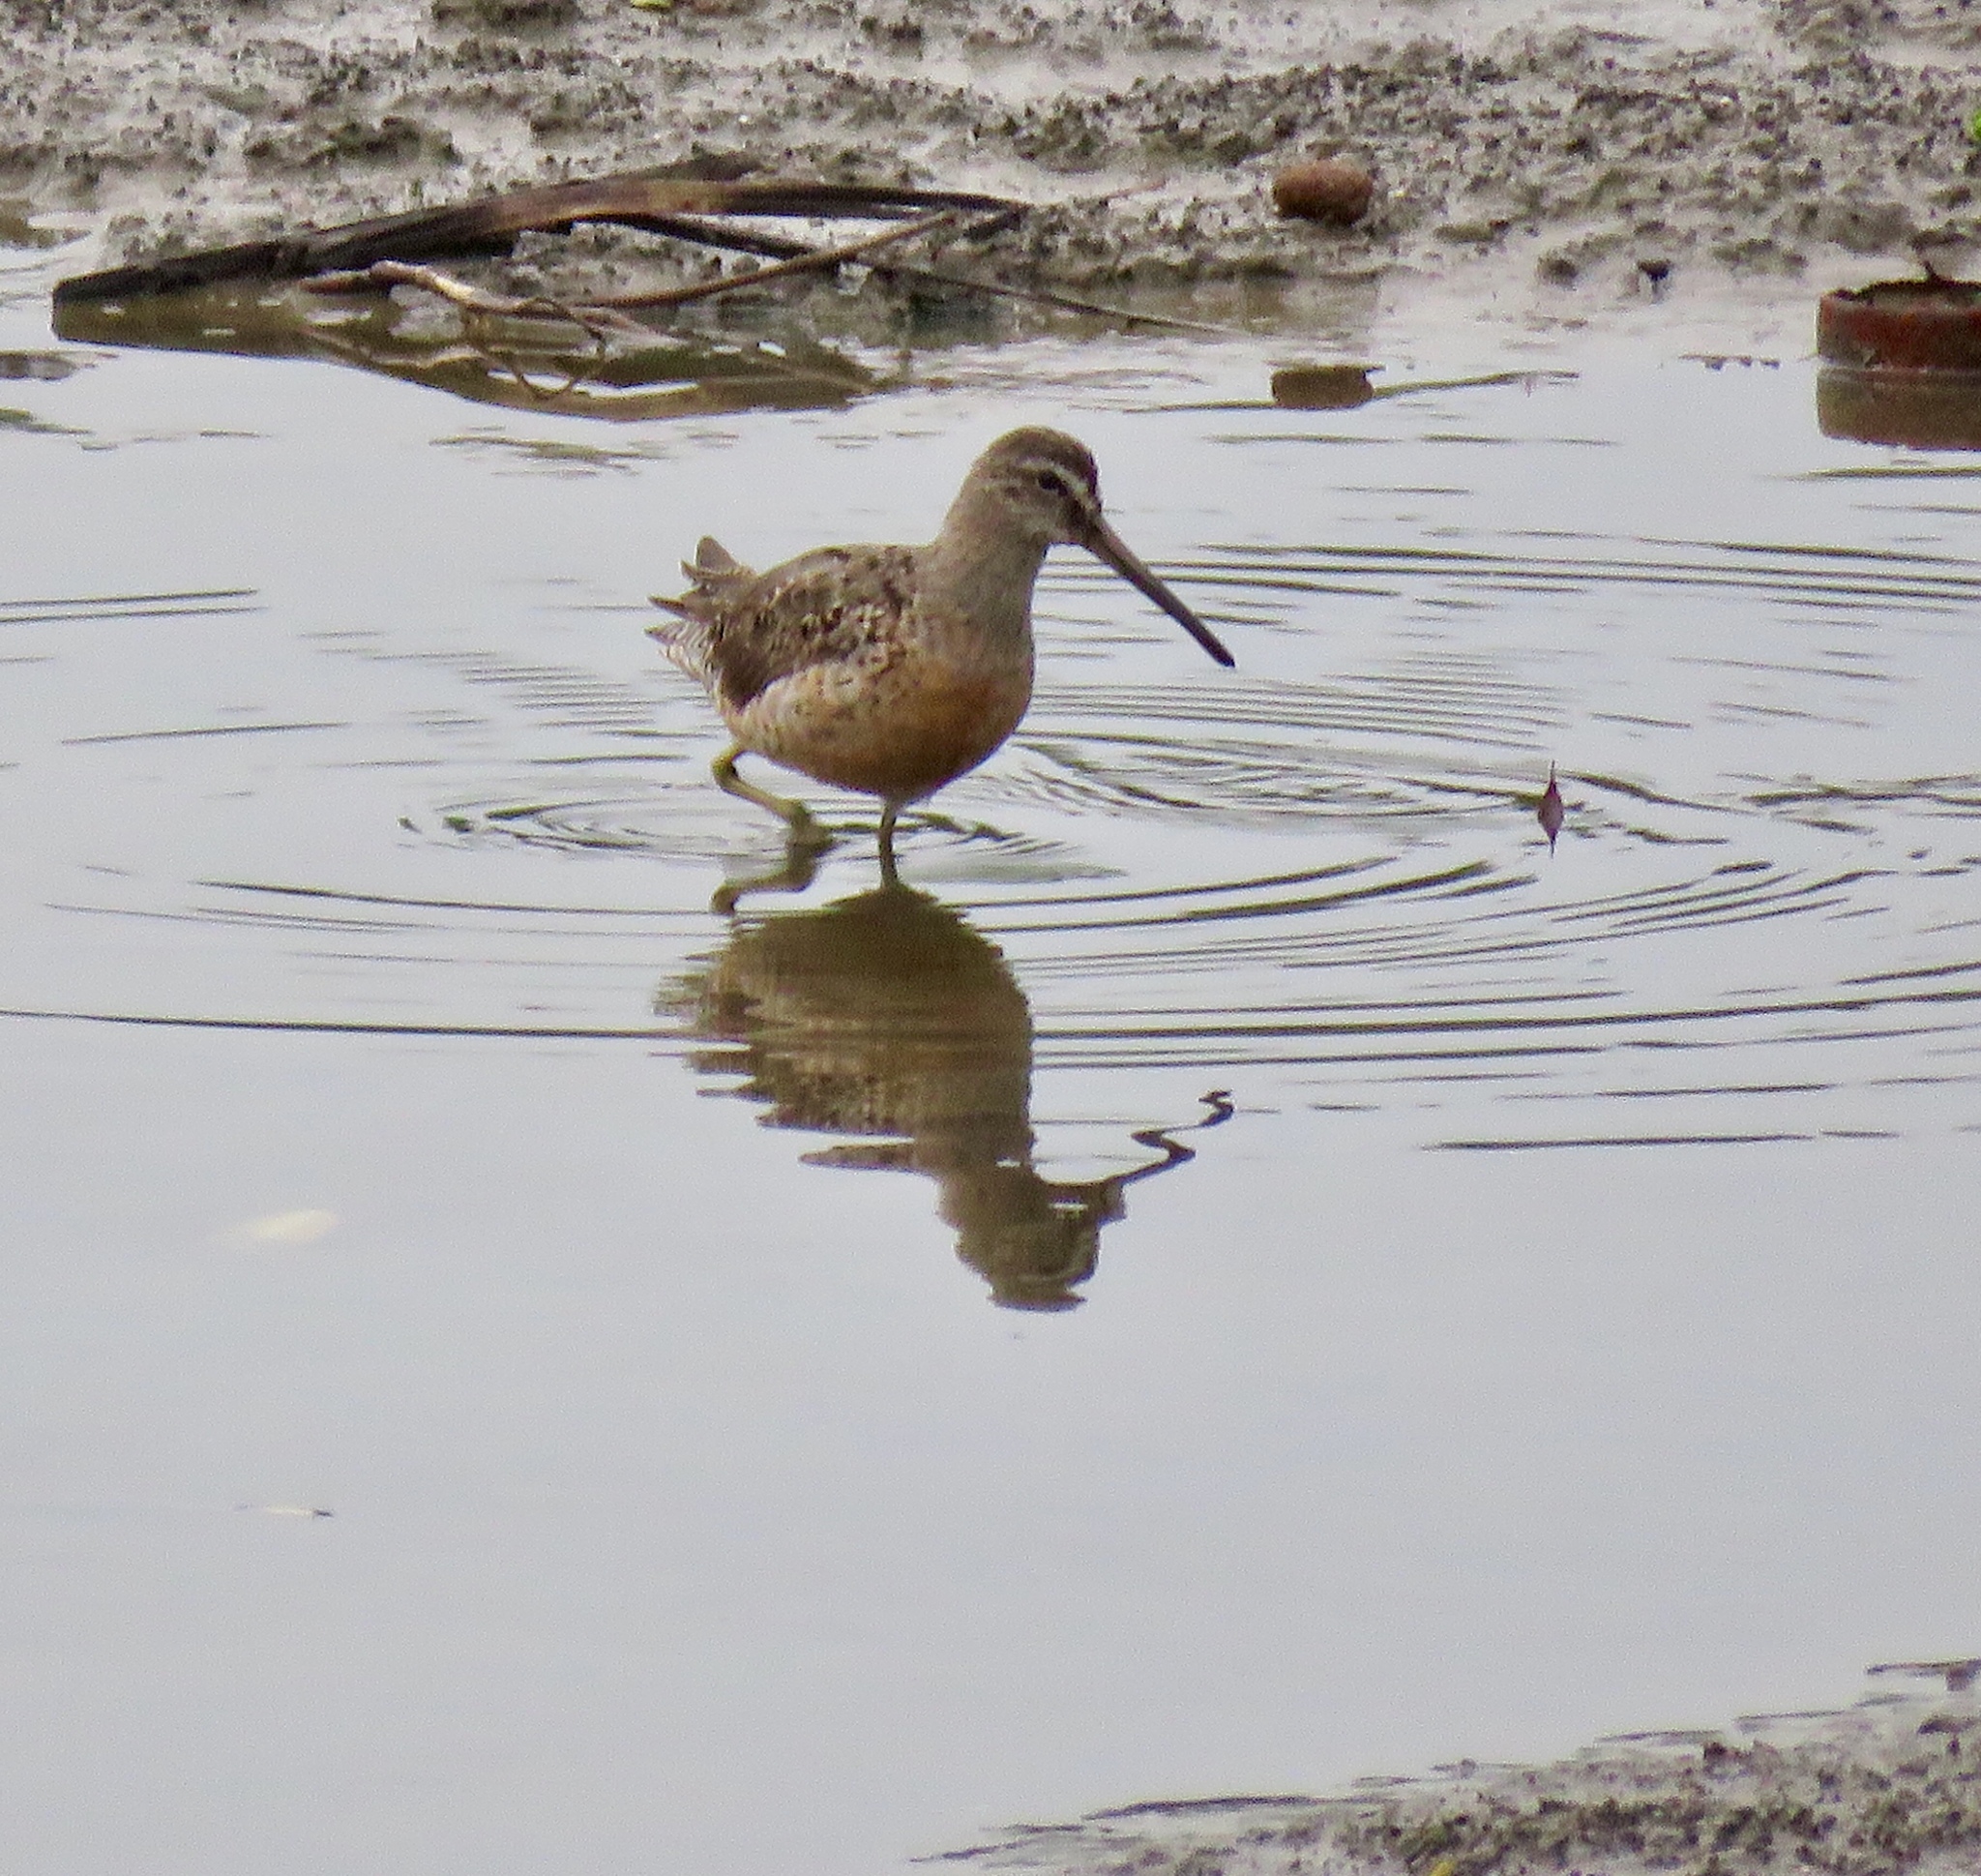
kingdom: Animalia
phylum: Chordata
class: Aves
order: Charadriiformes
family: Scolopacidae
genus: Limnodromus
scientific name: Limnodromus griseus
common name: Short-billed dowitcher
